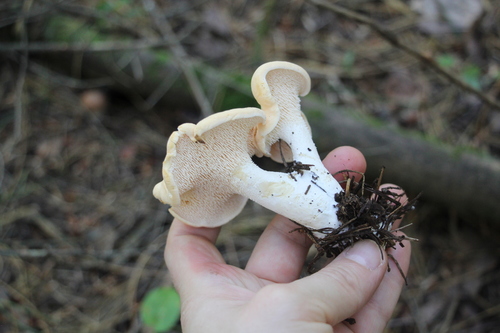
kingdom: Fungi
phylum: Basidiomycota
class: Agaricomycetes
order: Cantharellales
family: Hydnaceae
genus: Hydnum
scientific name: Hydnum repandum
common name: Wood hedgehog
